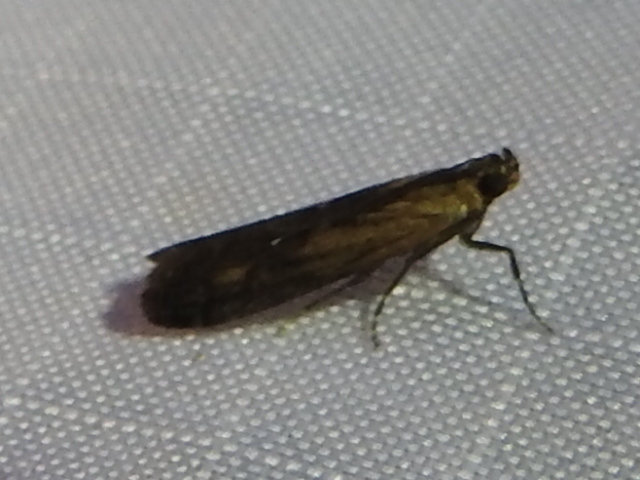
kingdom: Animalia
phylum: Arthropoda
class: Insecta
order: Lepidoptera
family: Pyralidae
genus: Elasmopalpus
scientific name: Elasmopalpus lignosella
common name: Lesser cornstalk borer
